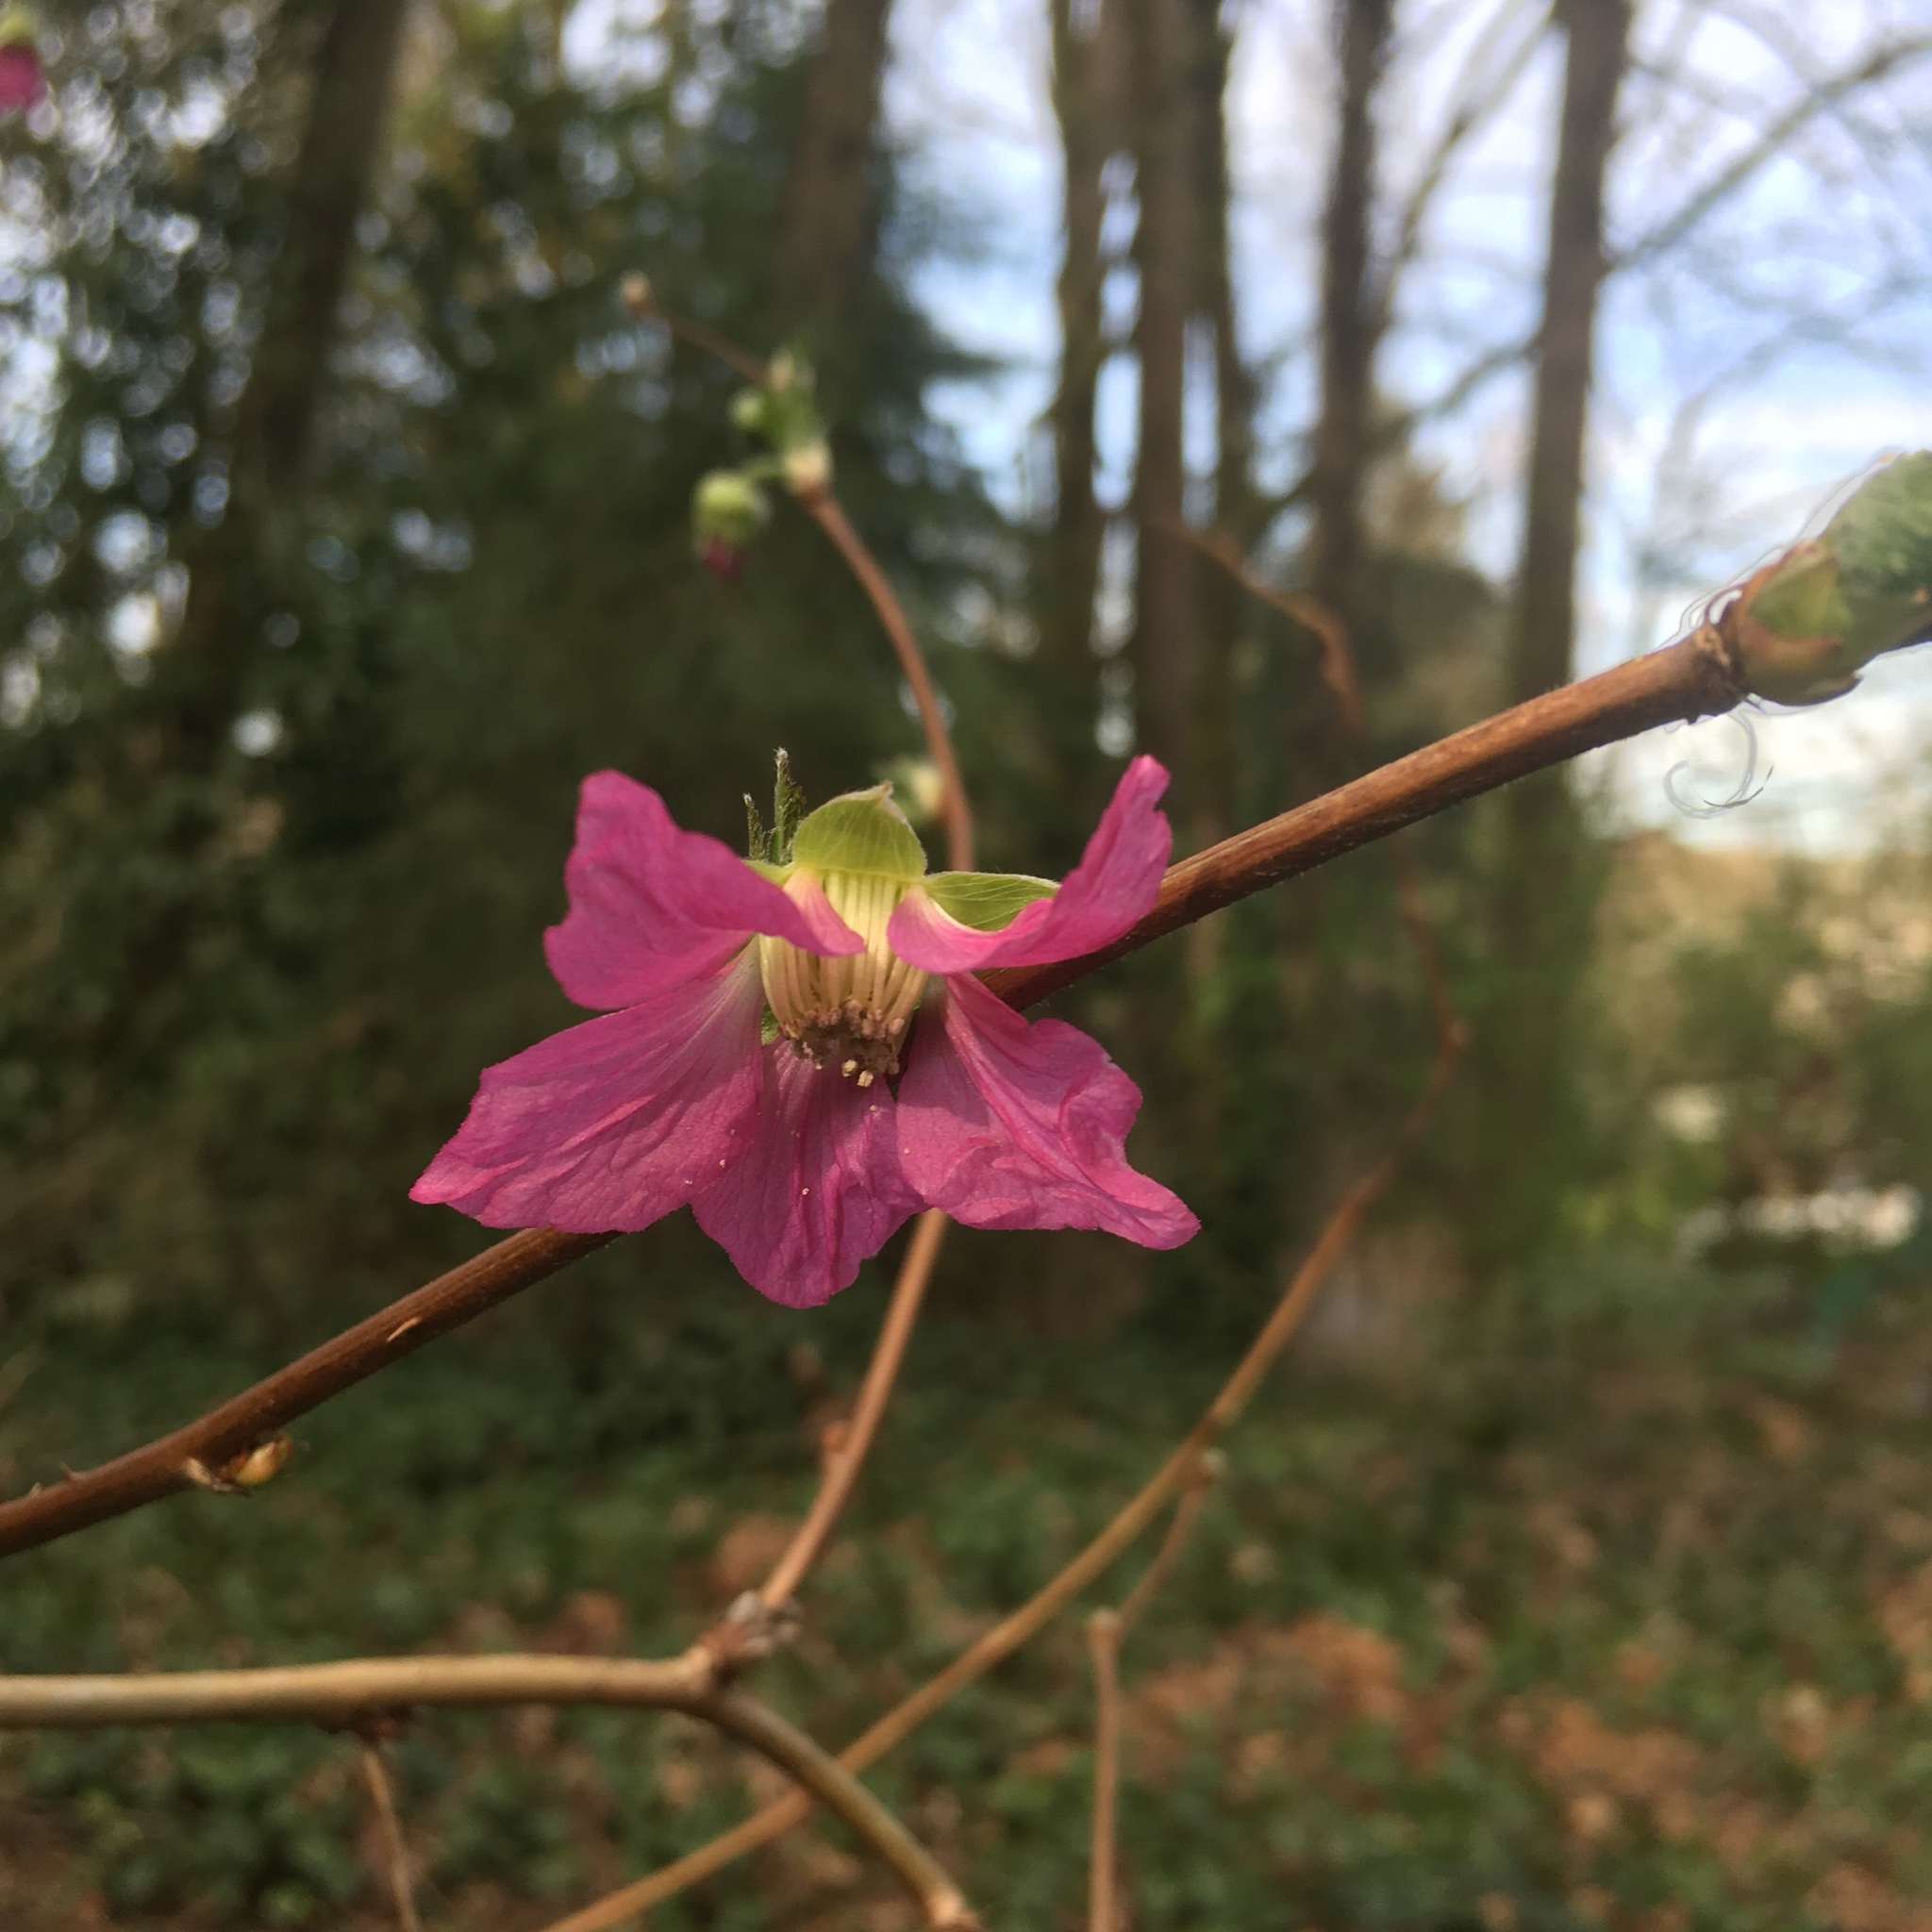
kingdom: Plantae
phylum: Tracheophyta
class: Magnoliopsida
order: Rosales
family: Rosaceae
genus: Rubus
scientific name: Rubus spectabilis
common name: Salmonberry
